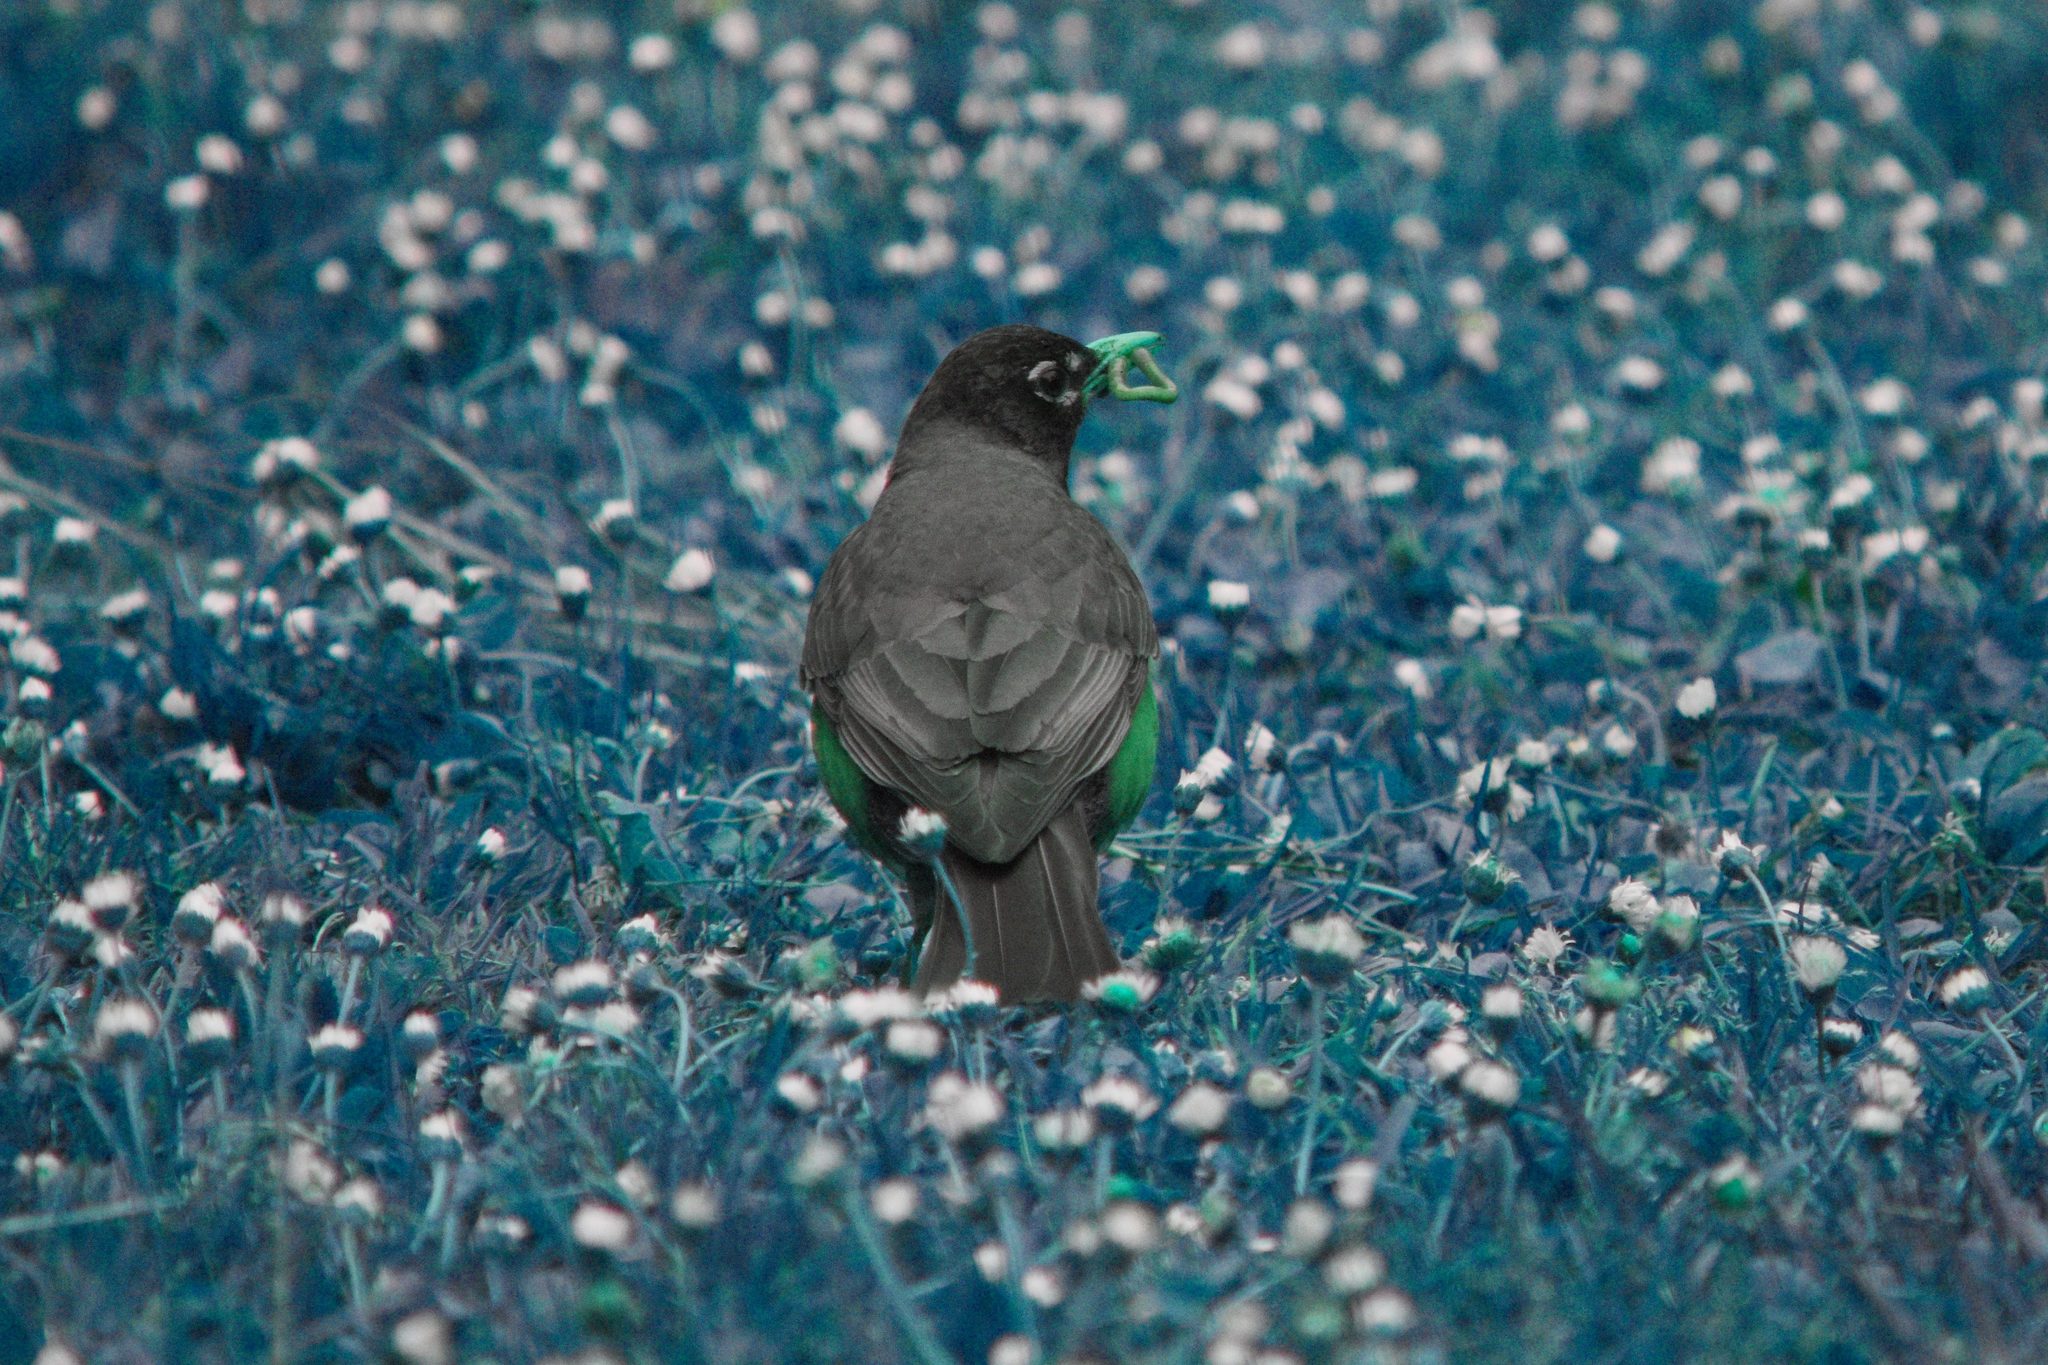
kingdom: Animalia
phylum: Chordata
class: Aves
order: Passeriformes
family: Turdidae
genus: Turdus
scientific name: Turdus migratorius
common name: American robin
